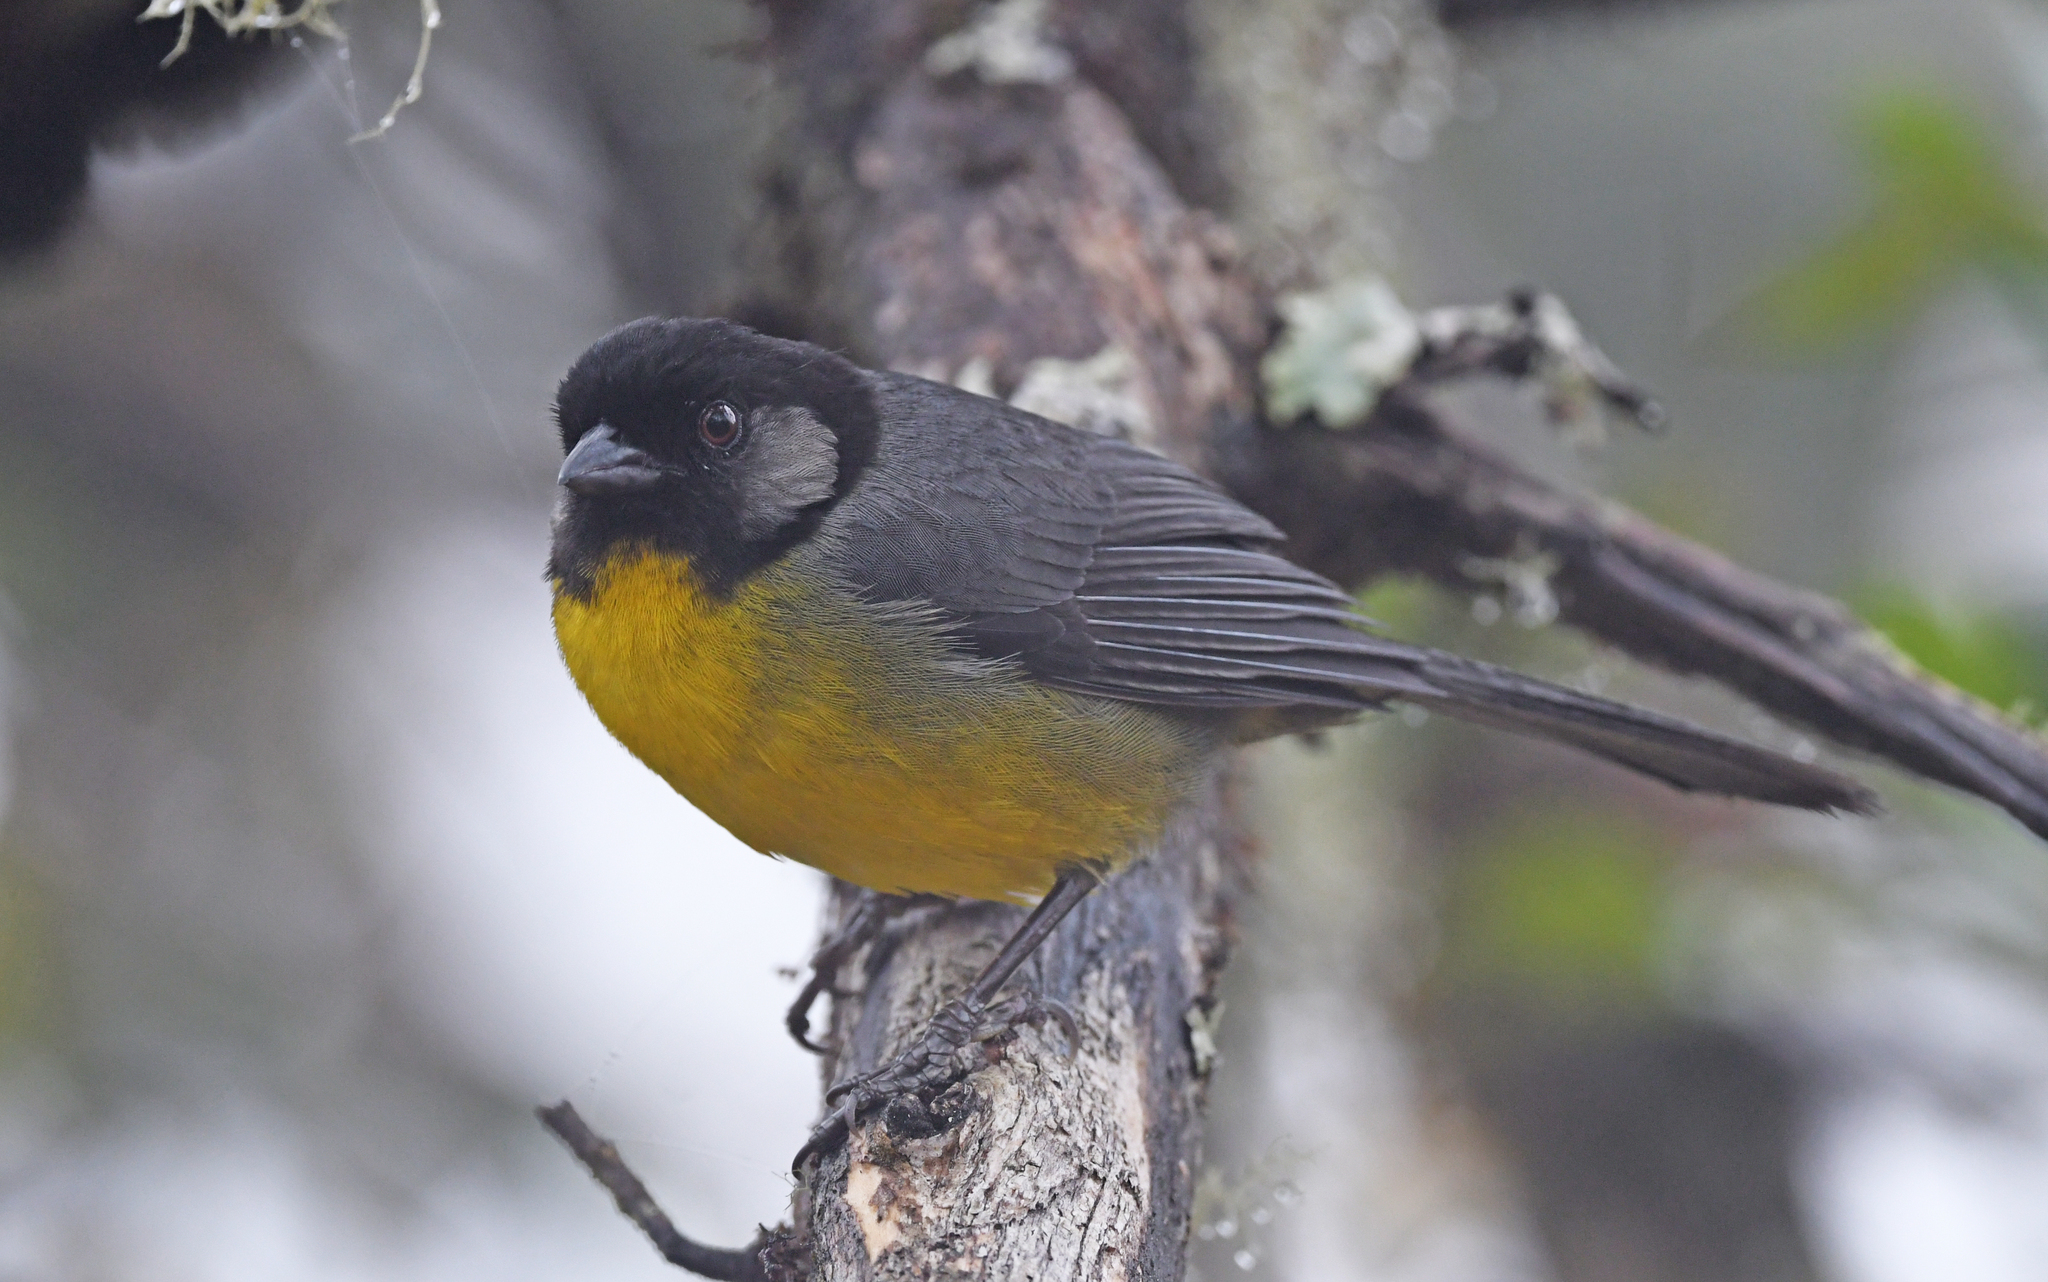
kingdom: Animalia
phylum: Chordata
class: Aves
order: Passeriformes
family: Passerellidae
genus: Atlapetes
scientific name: Atlapetes melanocephalus
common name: Santa marta brush-finch
